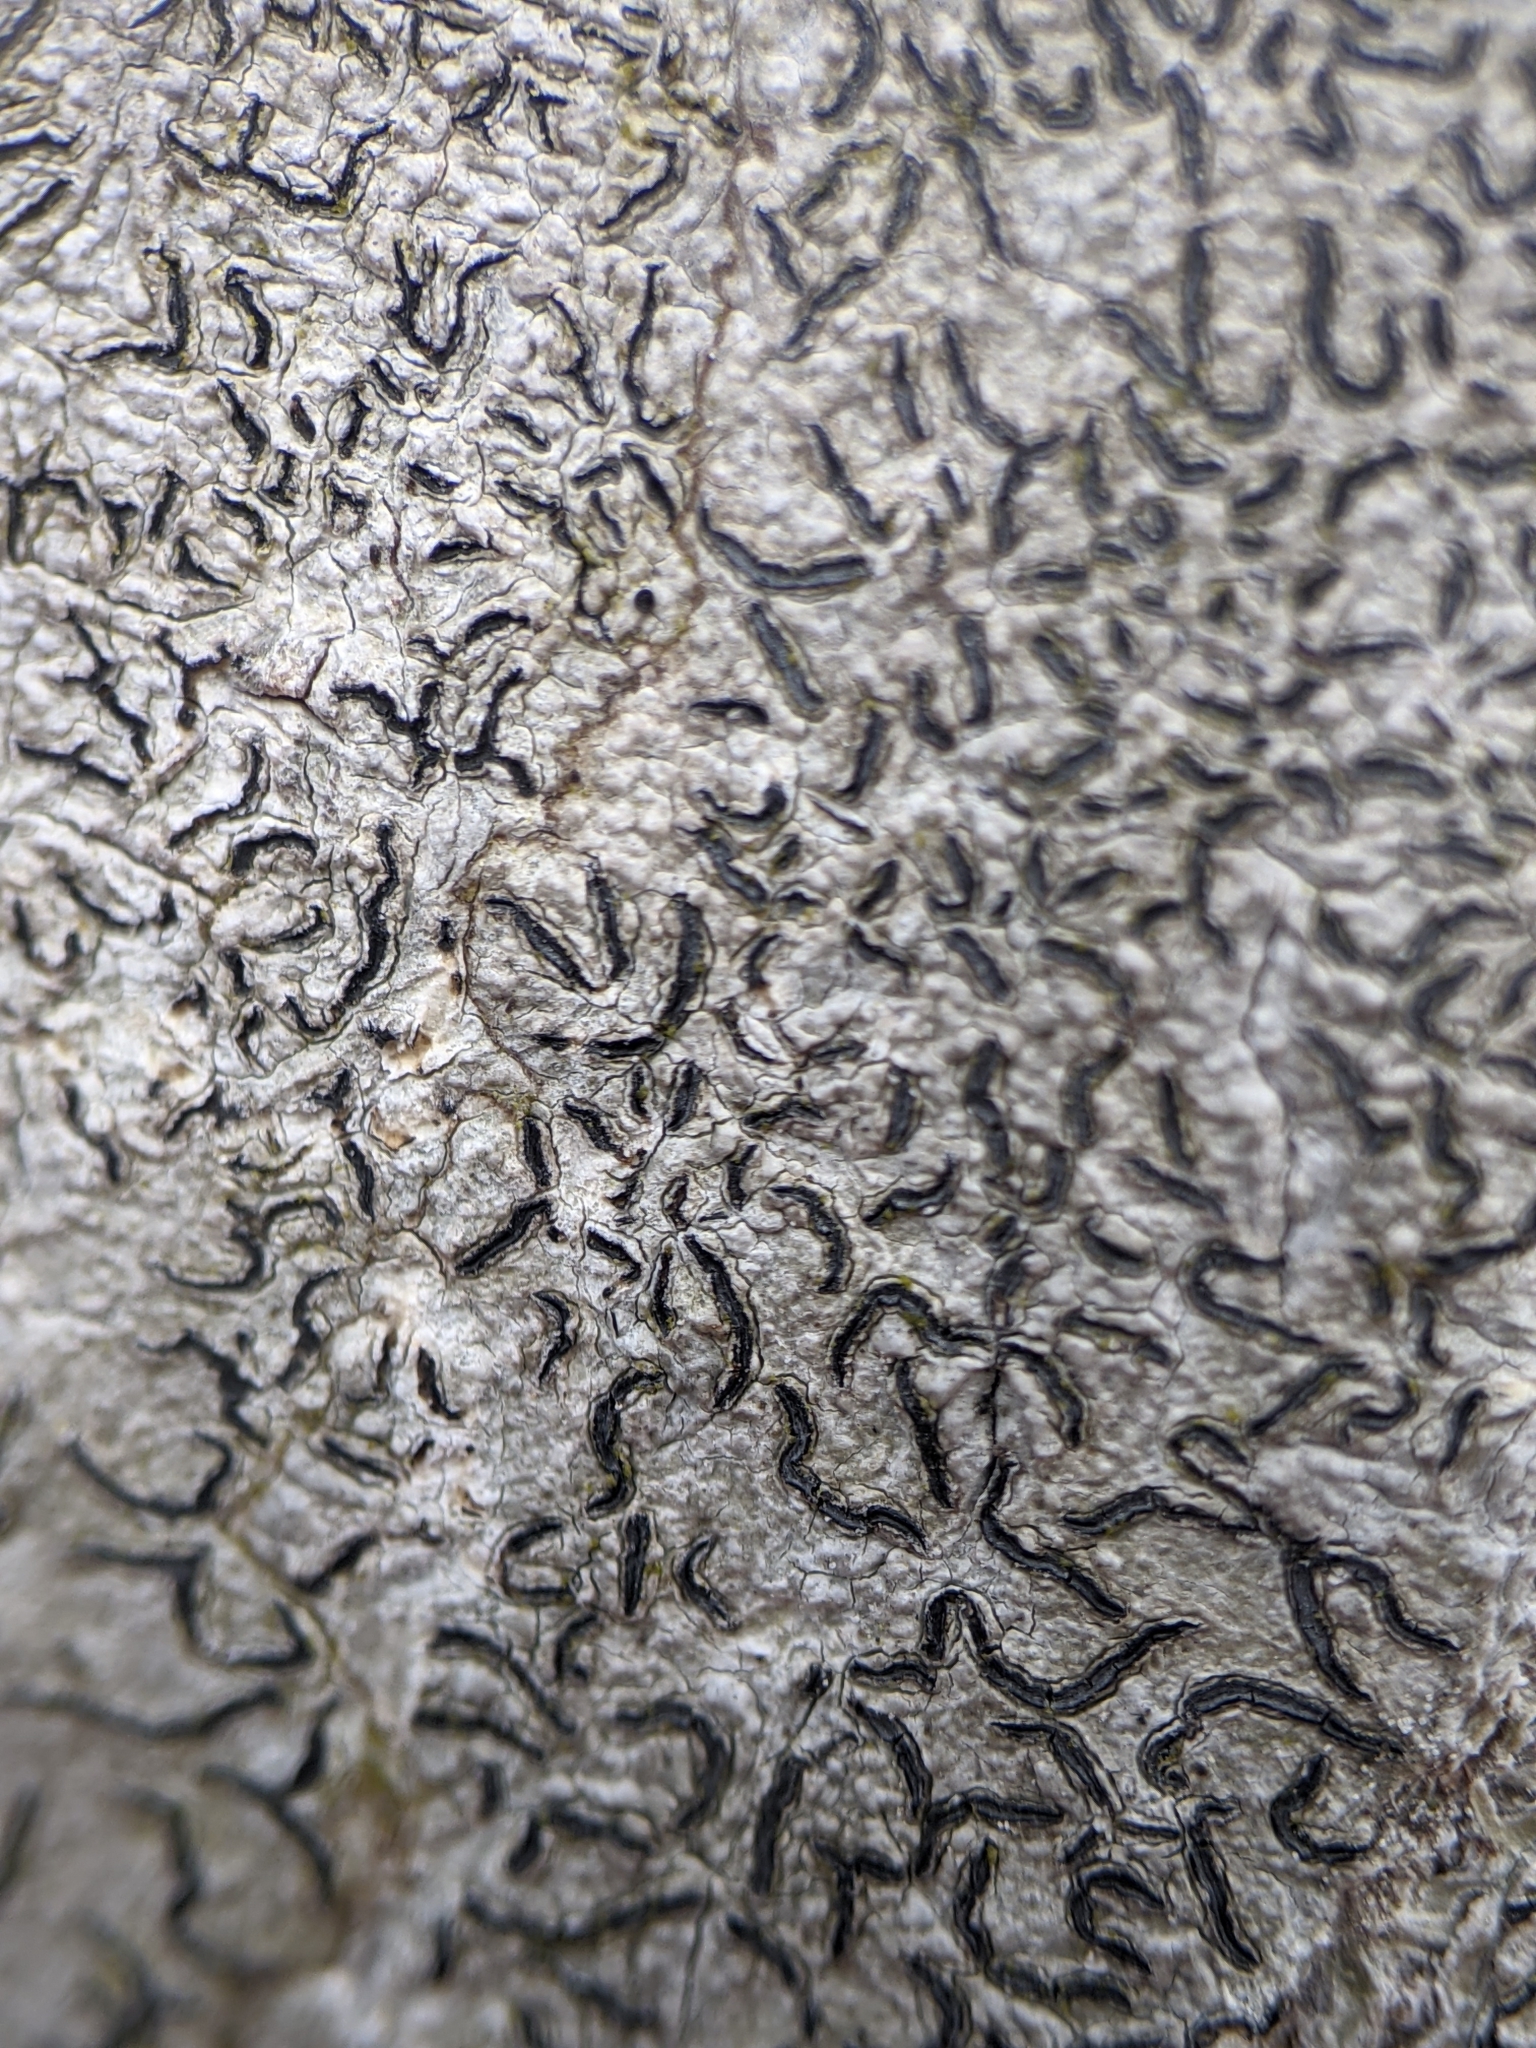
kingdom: Fungi
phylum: Ascomycota
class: Lecanoromycetes
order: Ostropales
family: Graphidaceae
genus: Graphis
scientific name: Graphis scripta
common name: Script lichen
